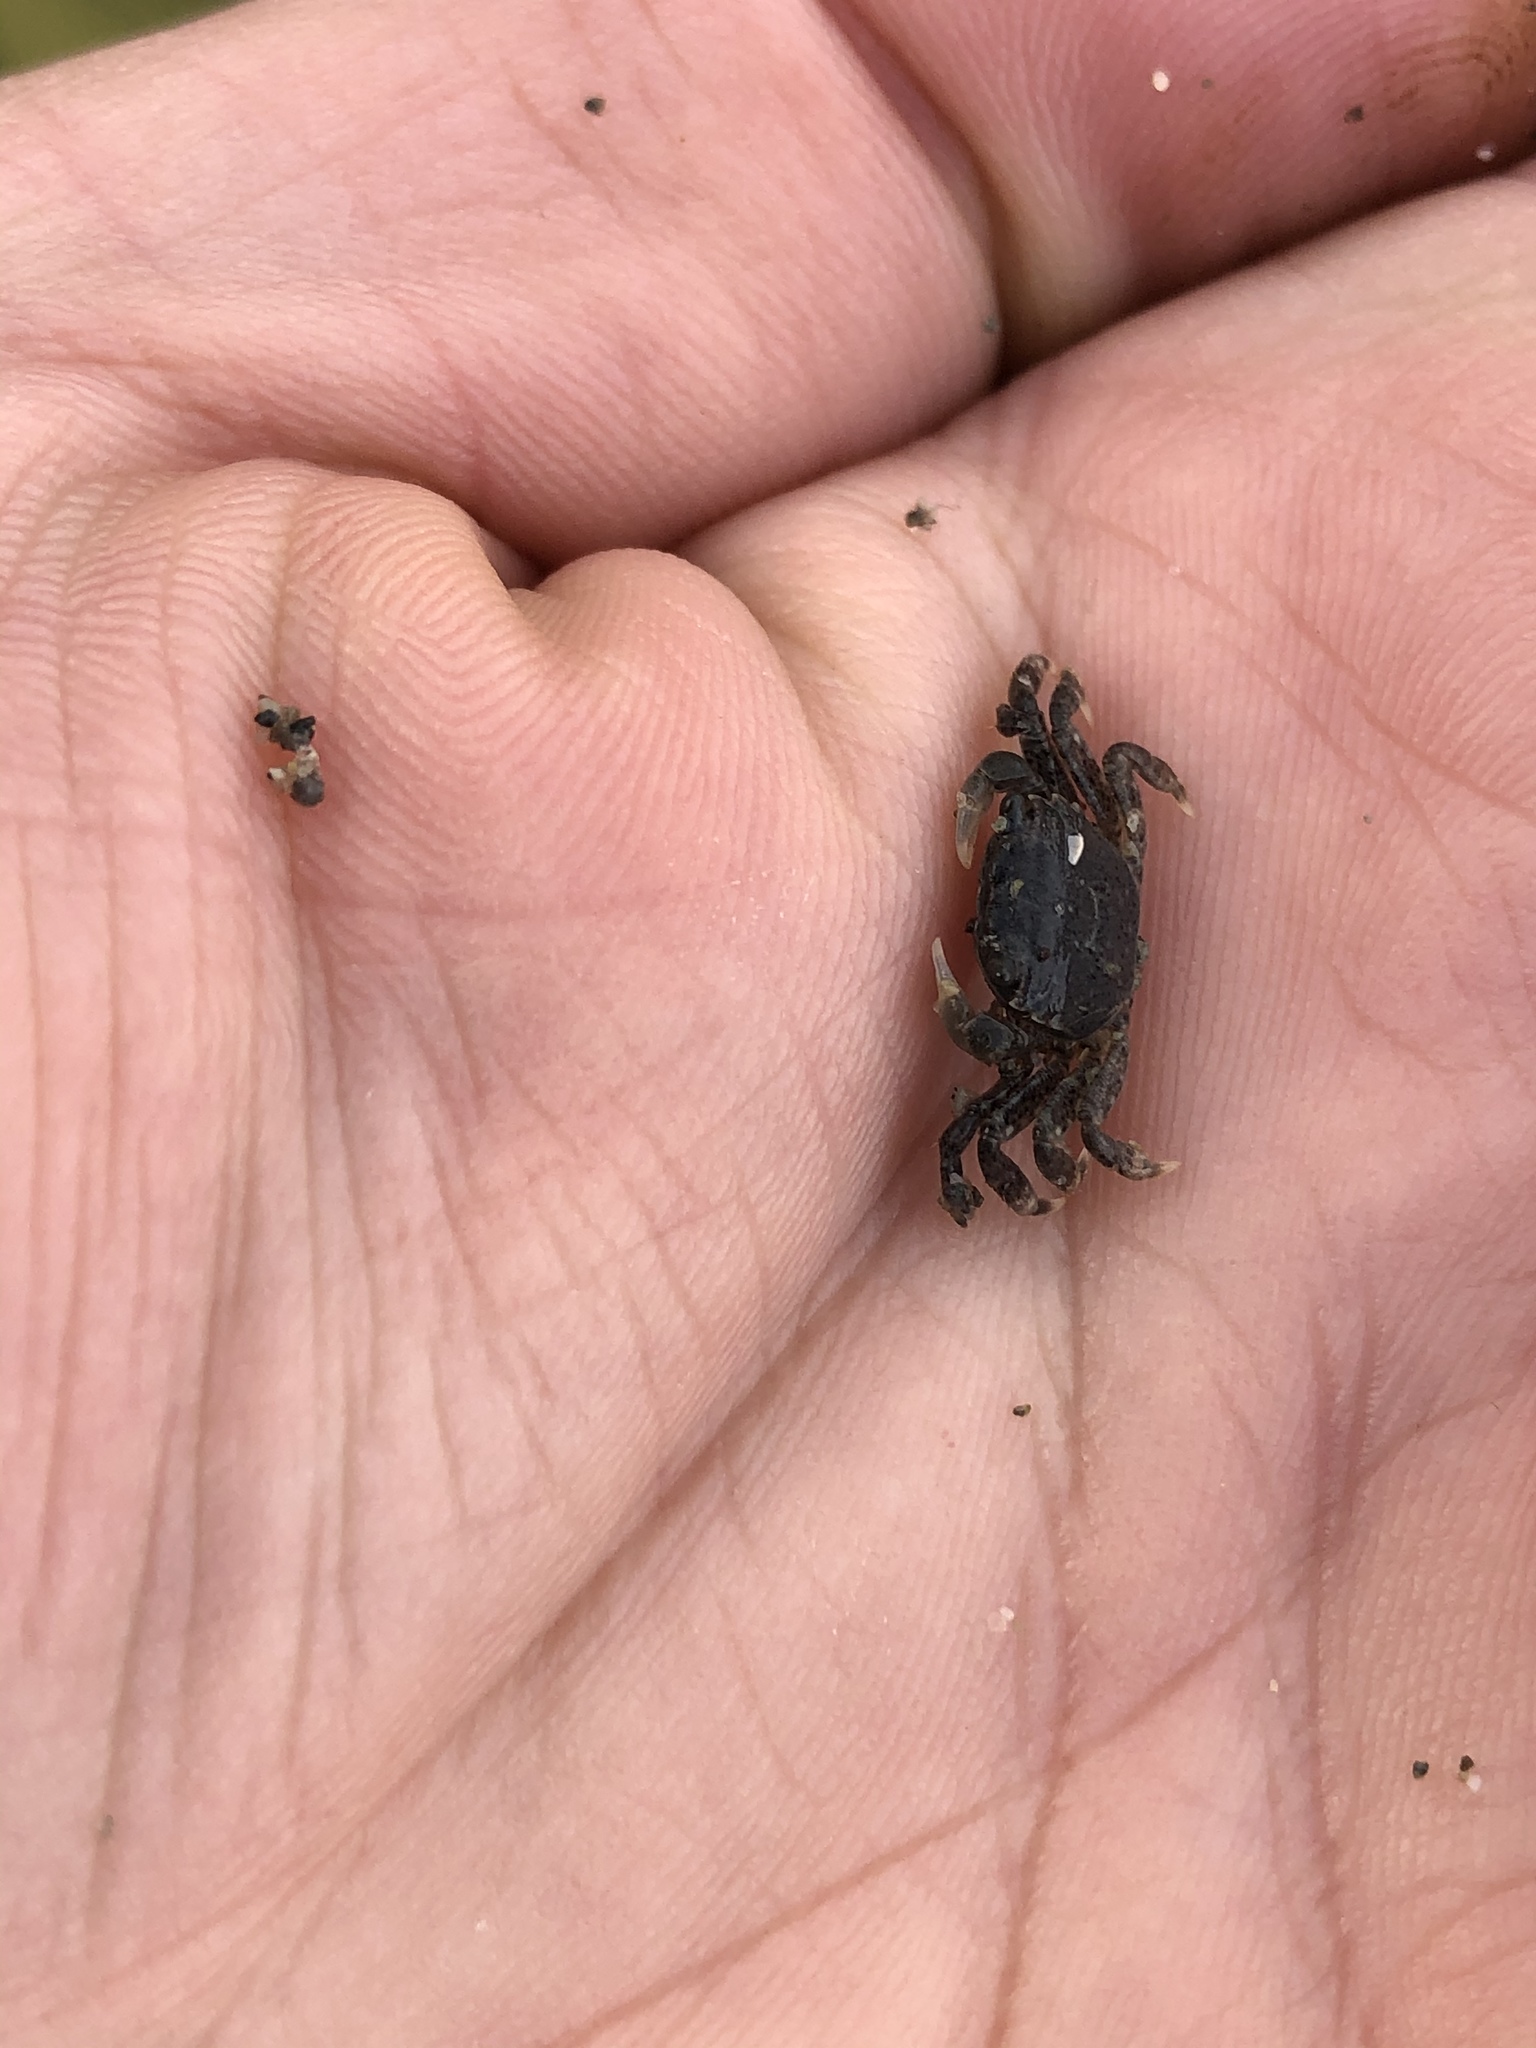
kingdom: Animalia
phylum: Arthropoda
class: Malacostraca
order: Decapoda
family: Varunidae
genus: Hemigrapsus
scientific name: Hemigrapsus oregonensis
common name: Yellow shore crab
